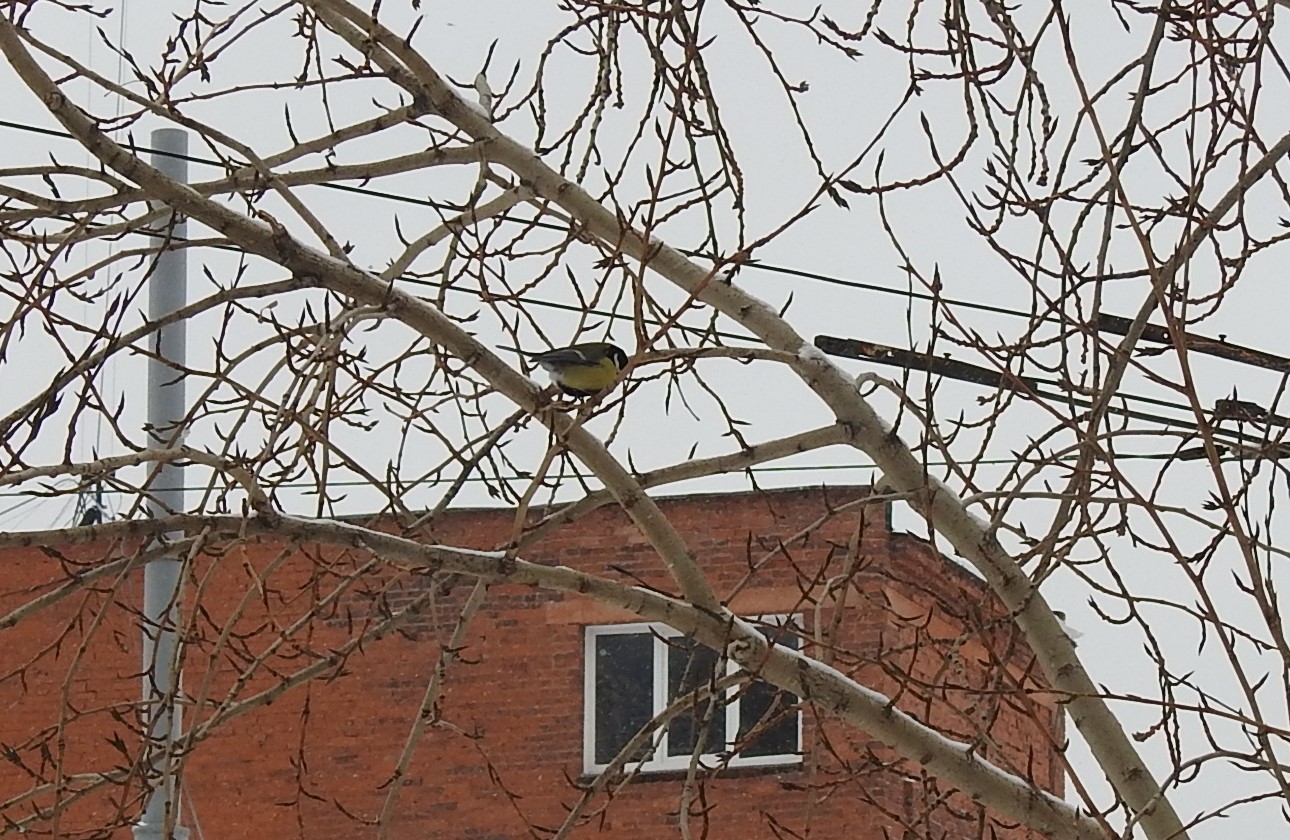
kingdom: Animalia
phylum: Chordata
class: Aves
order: Passeriformes
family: Paridae
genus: Parus
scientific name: Parus major
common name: Great tit
